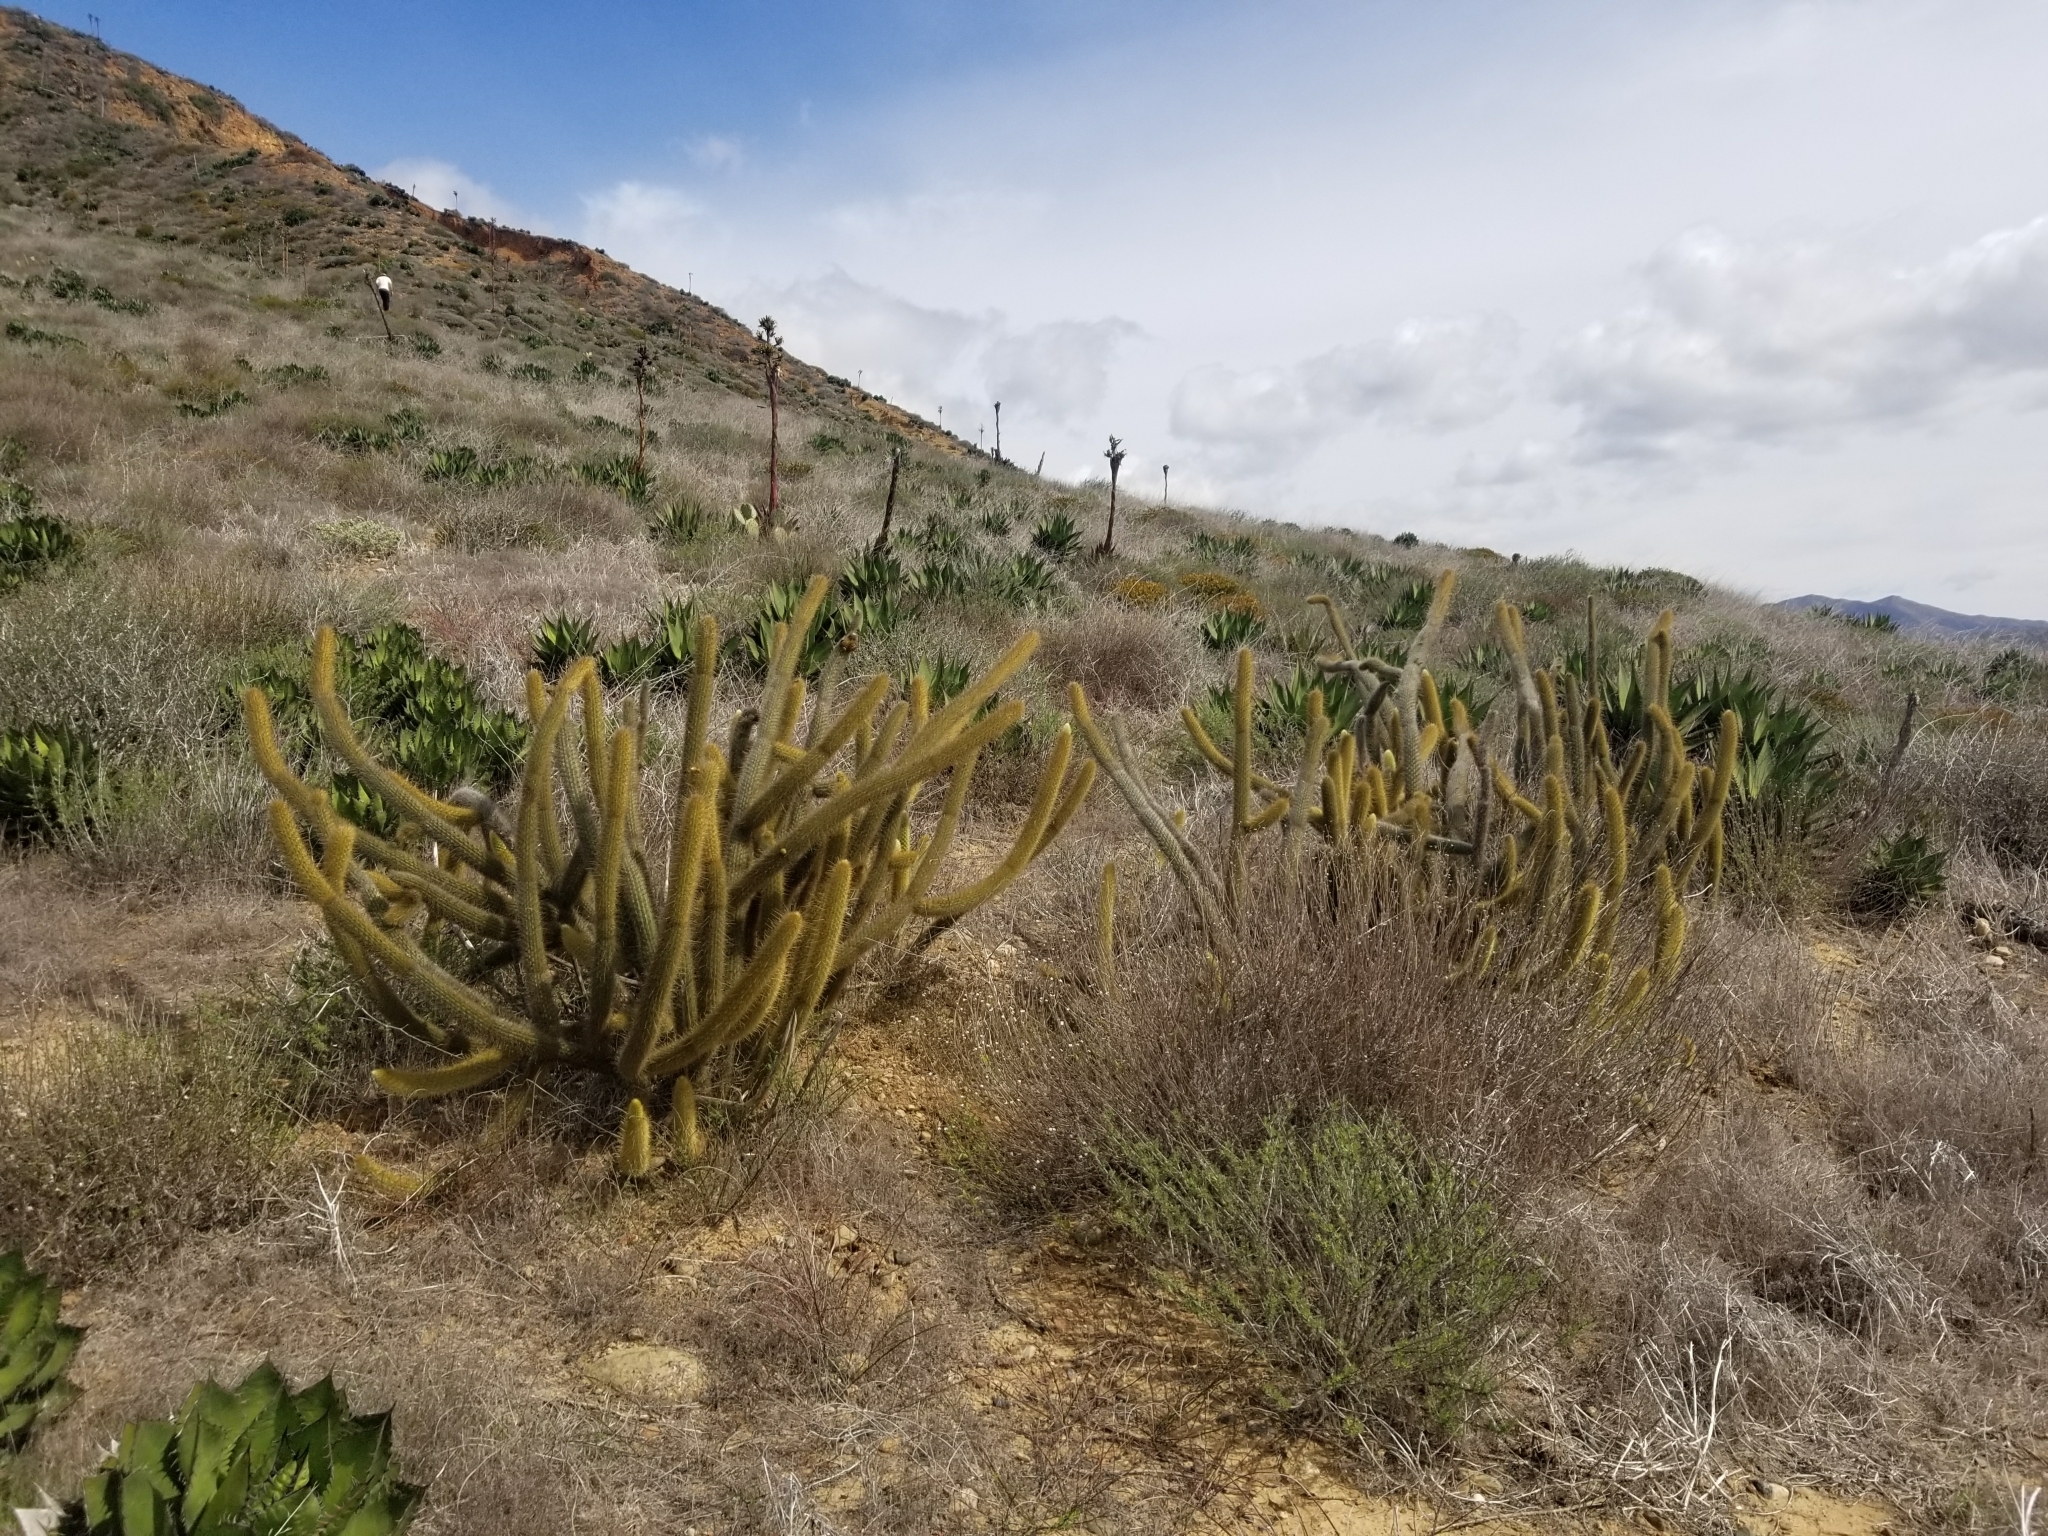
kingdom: Plantae
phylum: Tracheophyta
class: Magnoliopsida
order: Caryophyllales
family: Cactaceae
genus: Bergerocactus
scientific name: Bergerocactus emoryi
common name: Golden snakecactus
